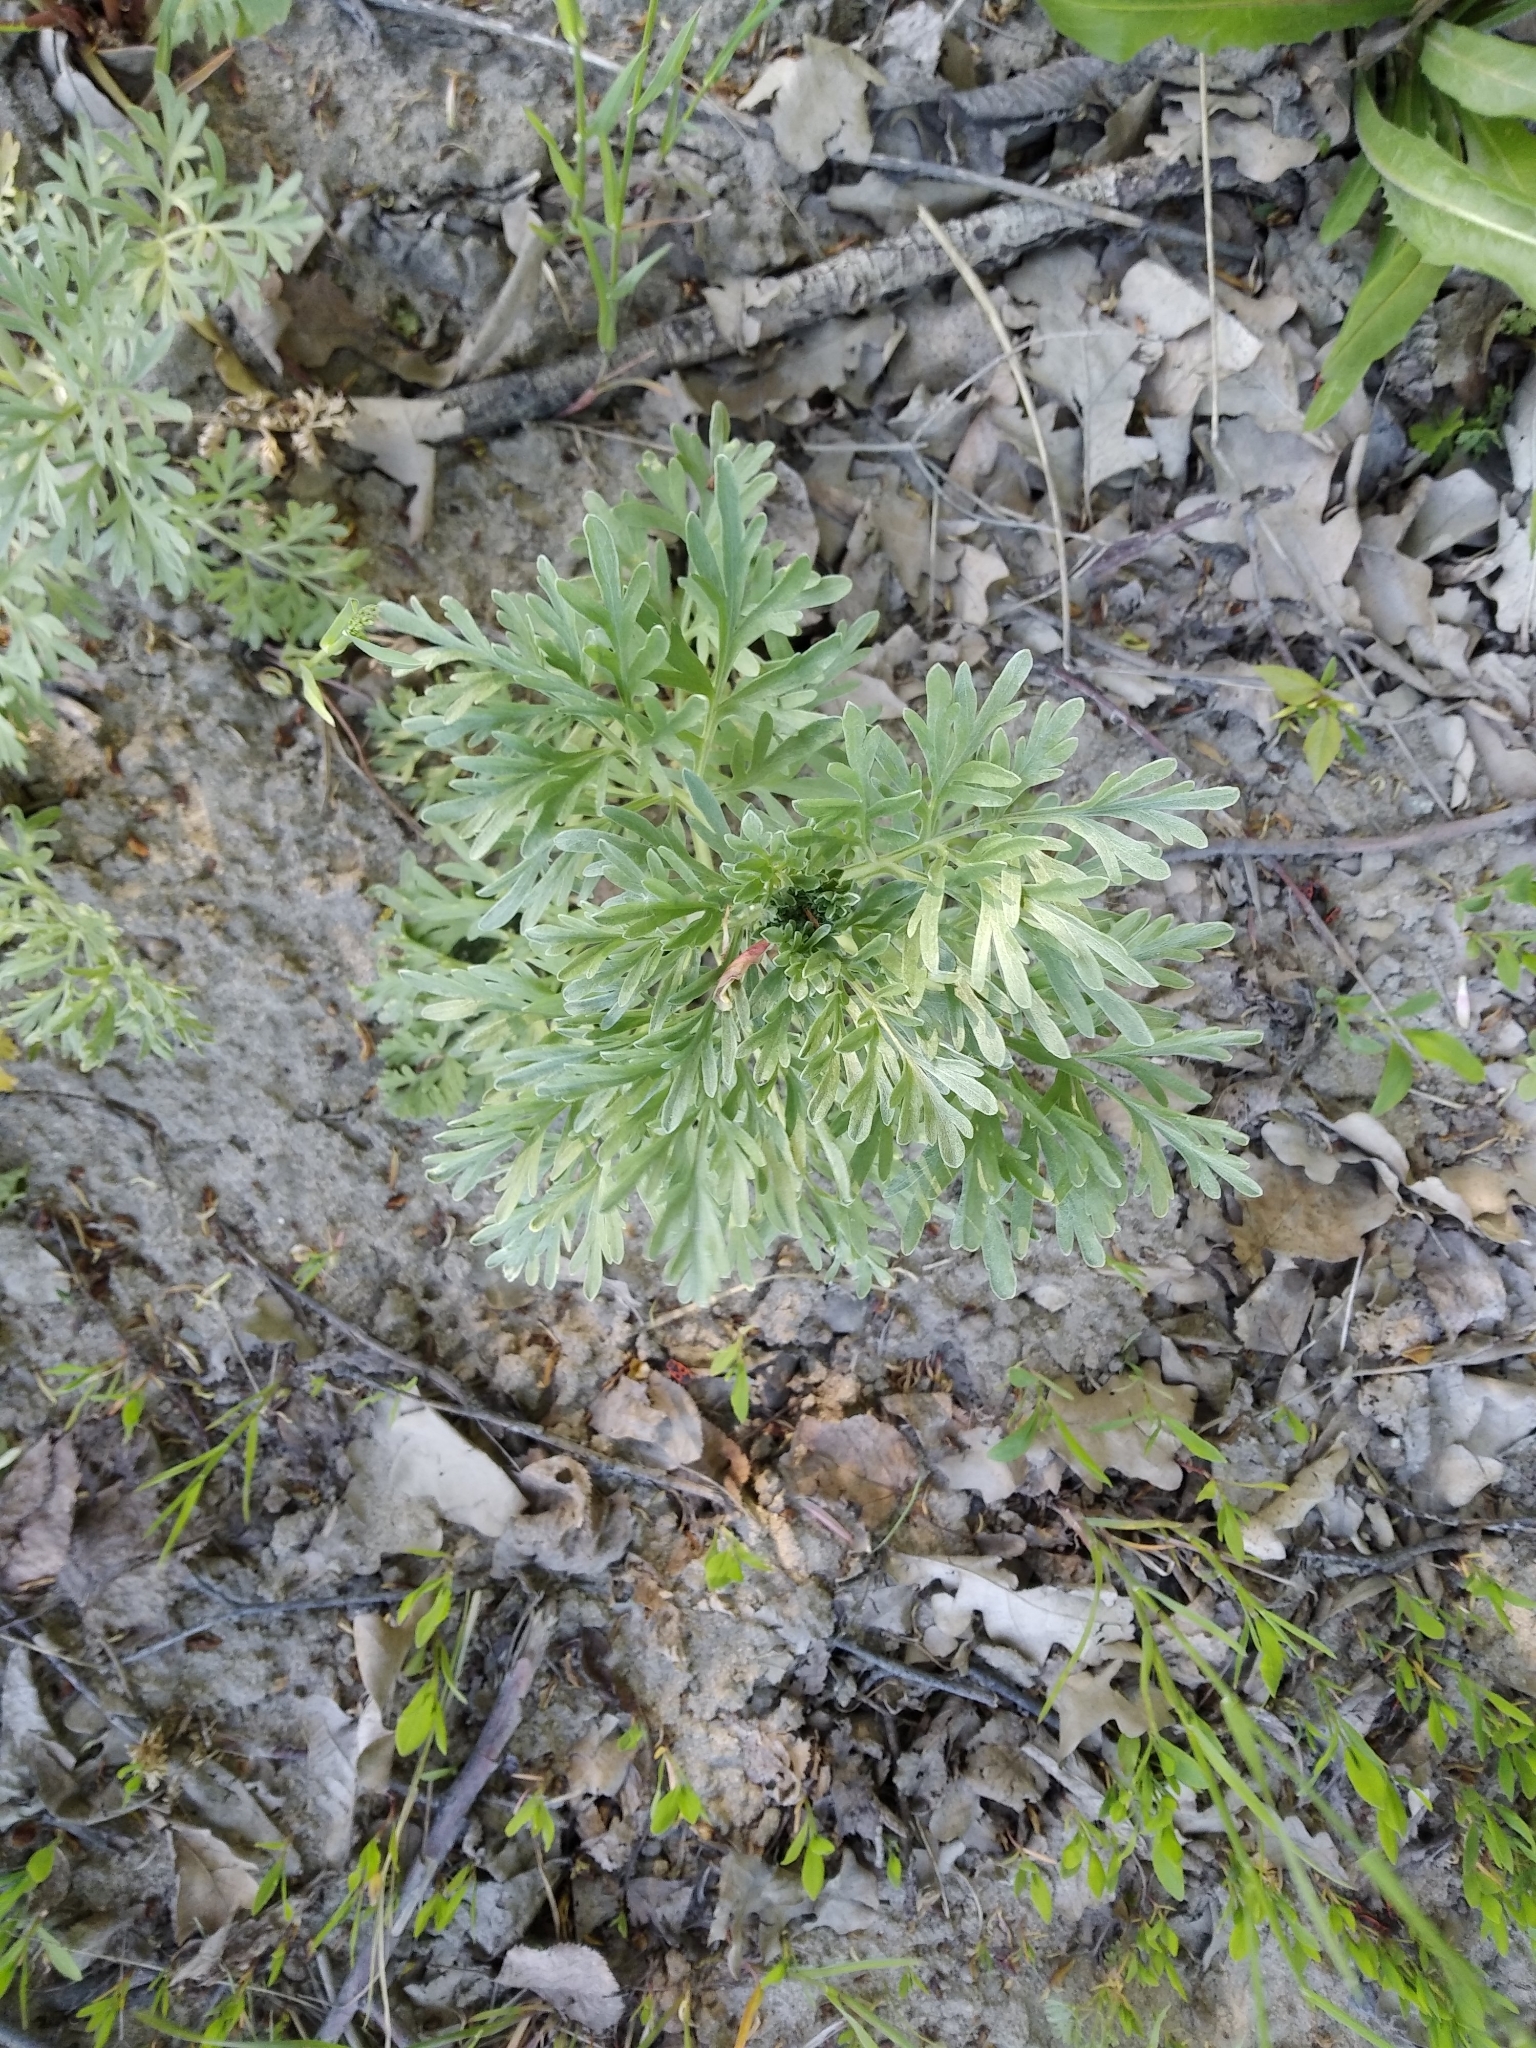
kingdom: Plantae
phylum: Tracheophyta
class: Magnoliopsida
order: Asterales
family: Asteraceae
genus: Artemisia
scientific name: Artemisia absinthium
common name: Wormwood
